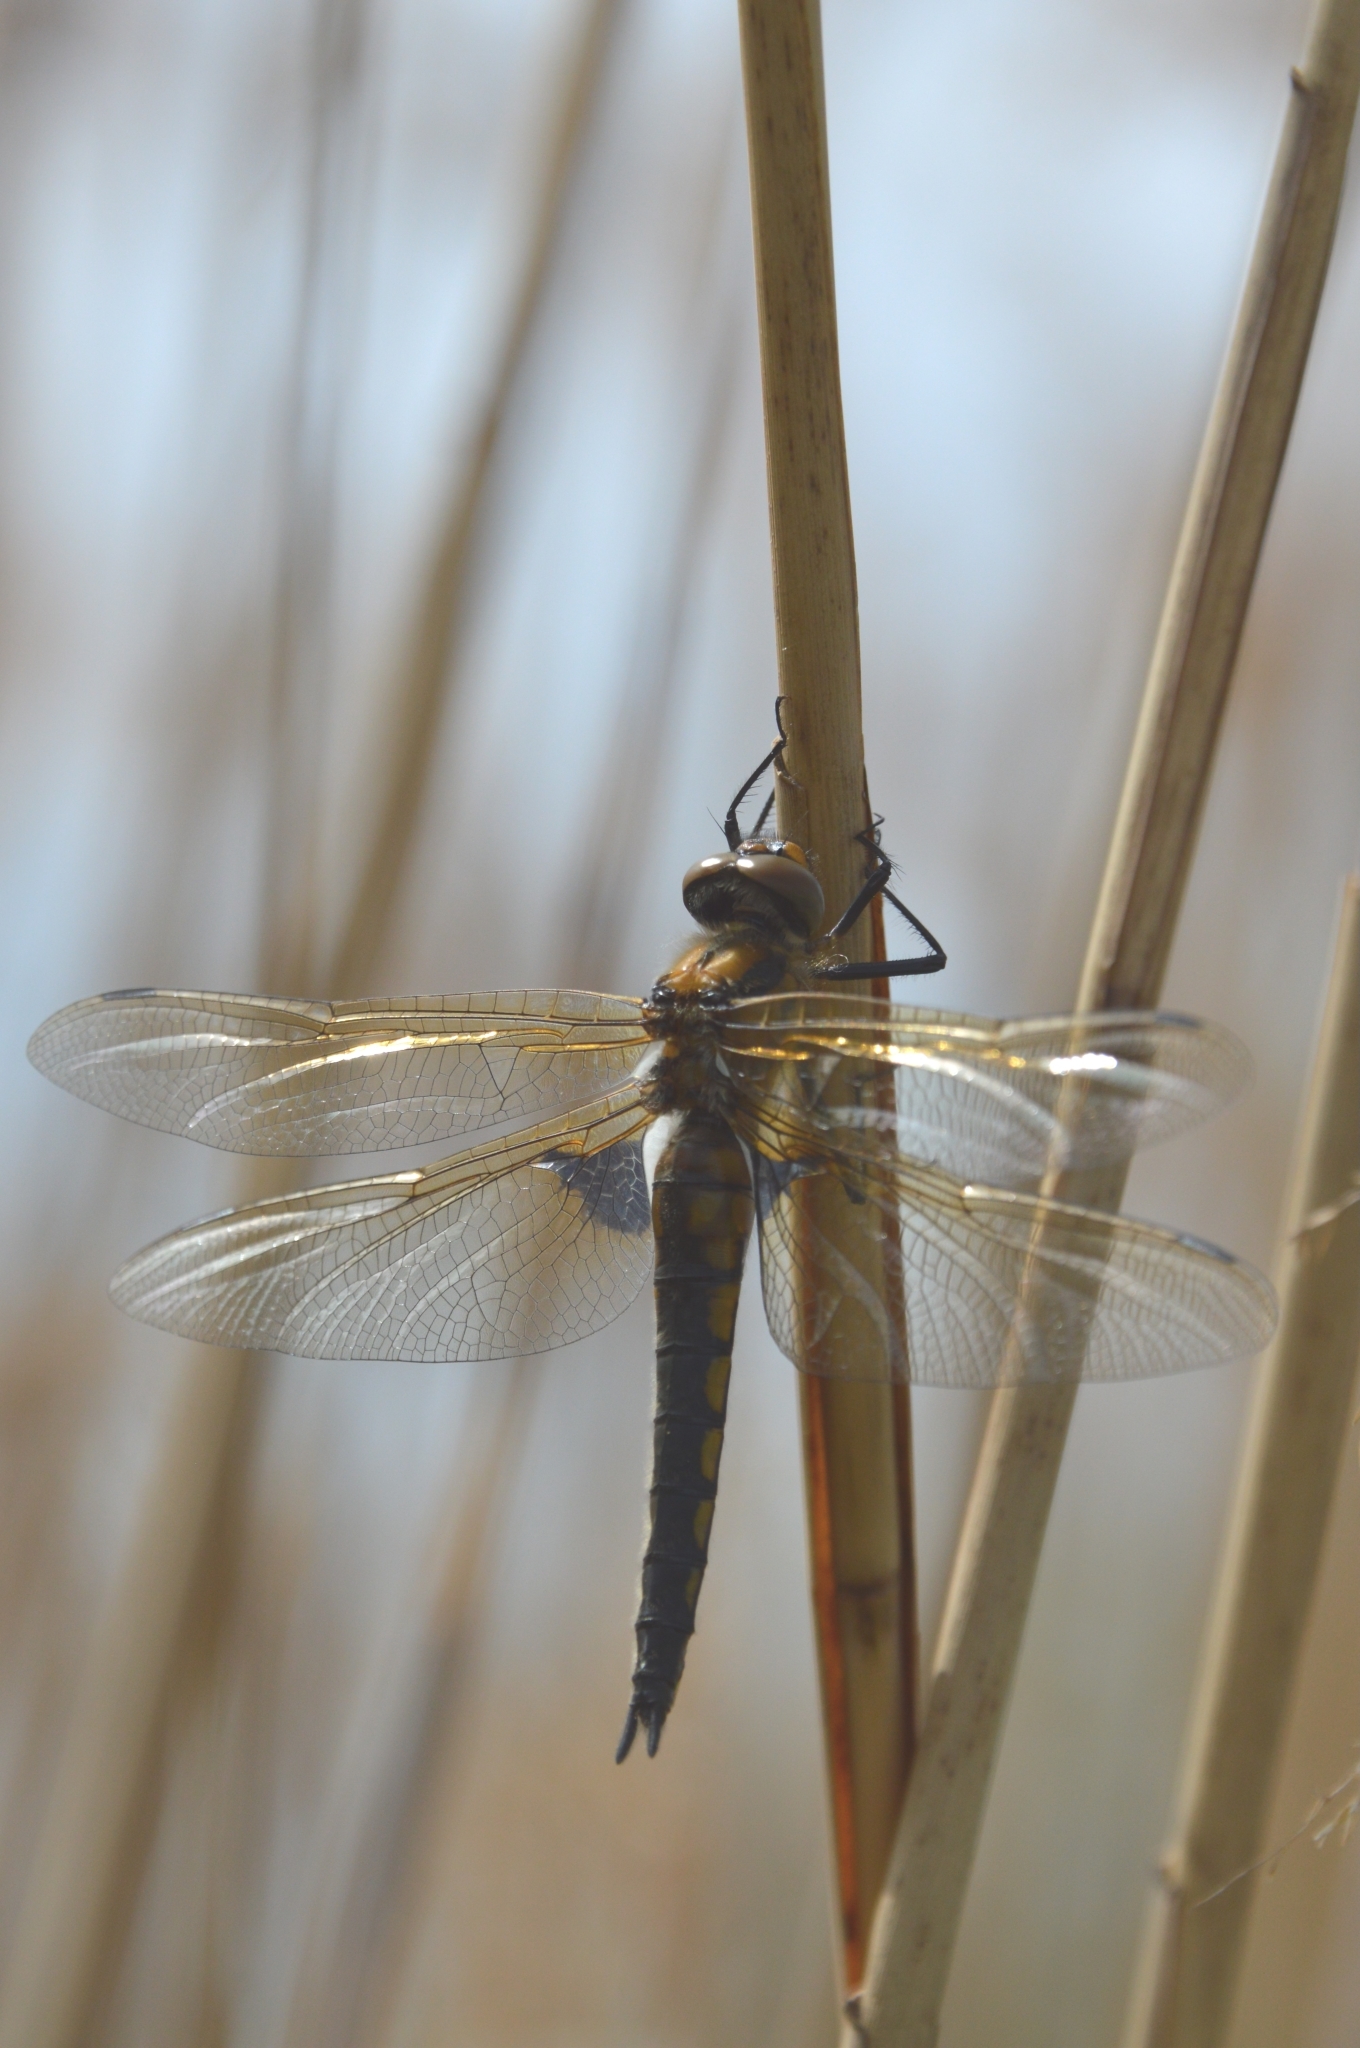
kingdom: Animalia
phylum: Arthropoda
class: Insecta
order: Odonata
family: Corduliidae
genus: Epitheca
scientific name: Epitheca bimaculata
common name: Eurasian baskettail
